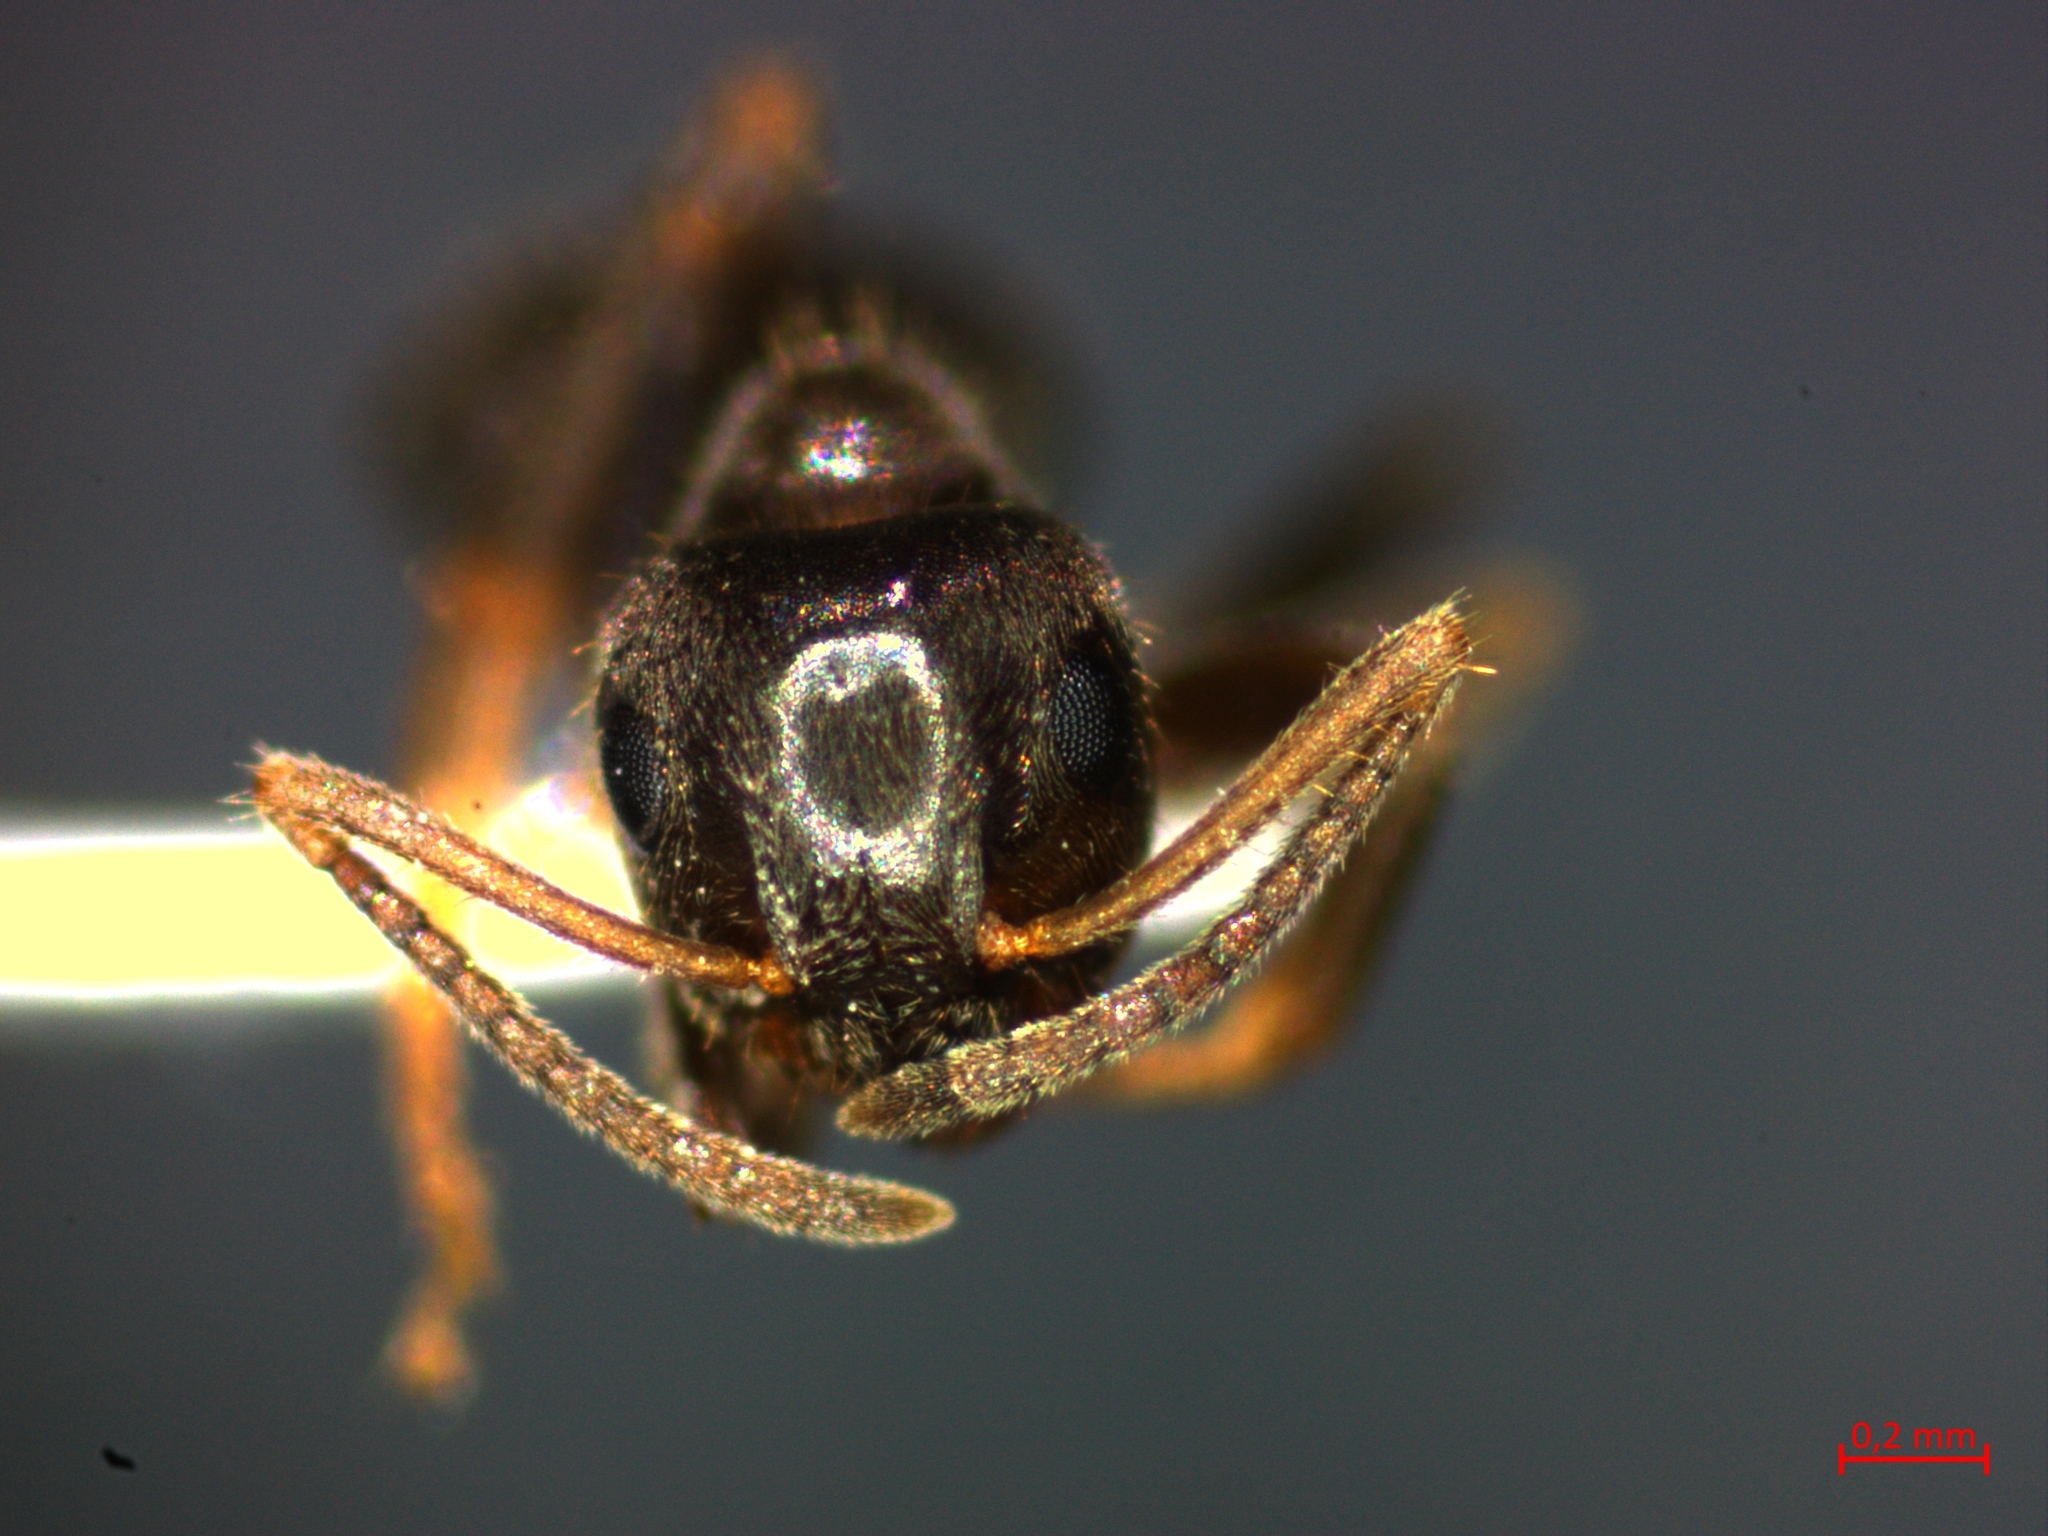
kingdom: Animalia
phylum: Arthropoda
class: Insecta
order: Hymenoptera
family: Formicidae
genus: Lasius
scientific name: Lasius niger
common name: Small black ant
